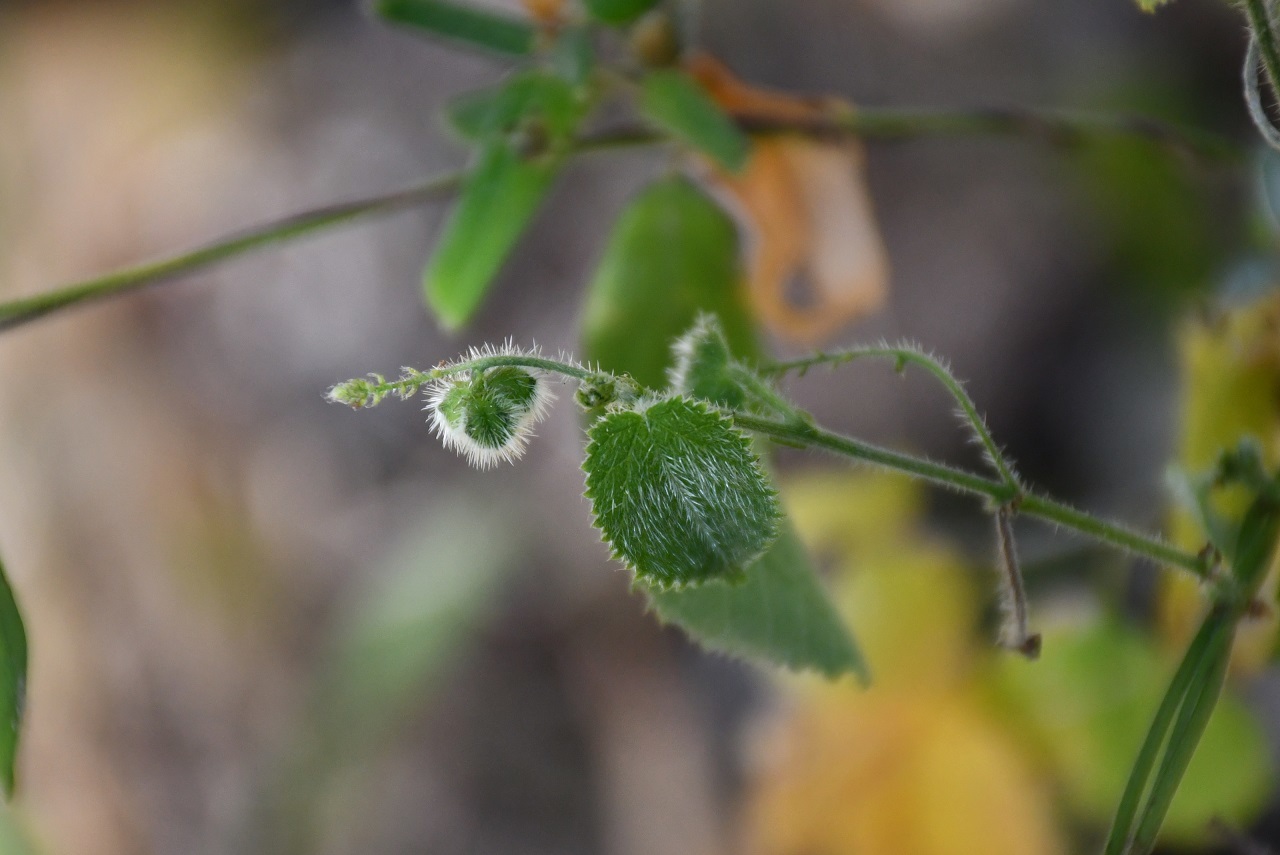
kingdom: Plantae
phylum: Tracheophyta
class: Magnoliopsida
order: Malpighiales
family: Euphorbiaceae
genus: Tragia
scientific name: Tragia yucatanensis
